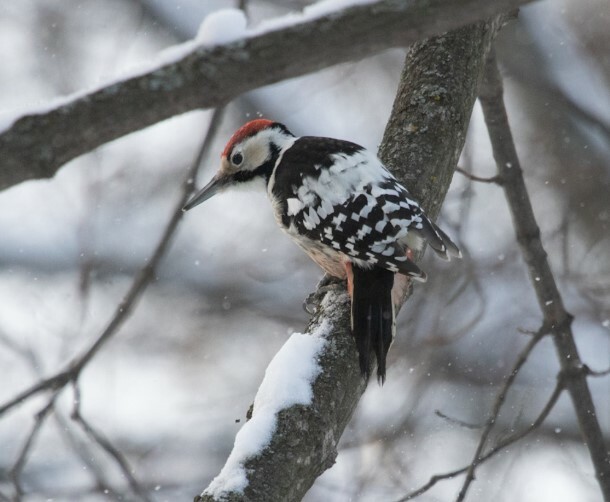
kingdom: Animalia
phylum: Chordata
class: Aves
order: Piciformes
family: Picidae
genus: Dendrocopos
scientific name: Dendrocopos leucotos
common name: White-backed woodpecker
